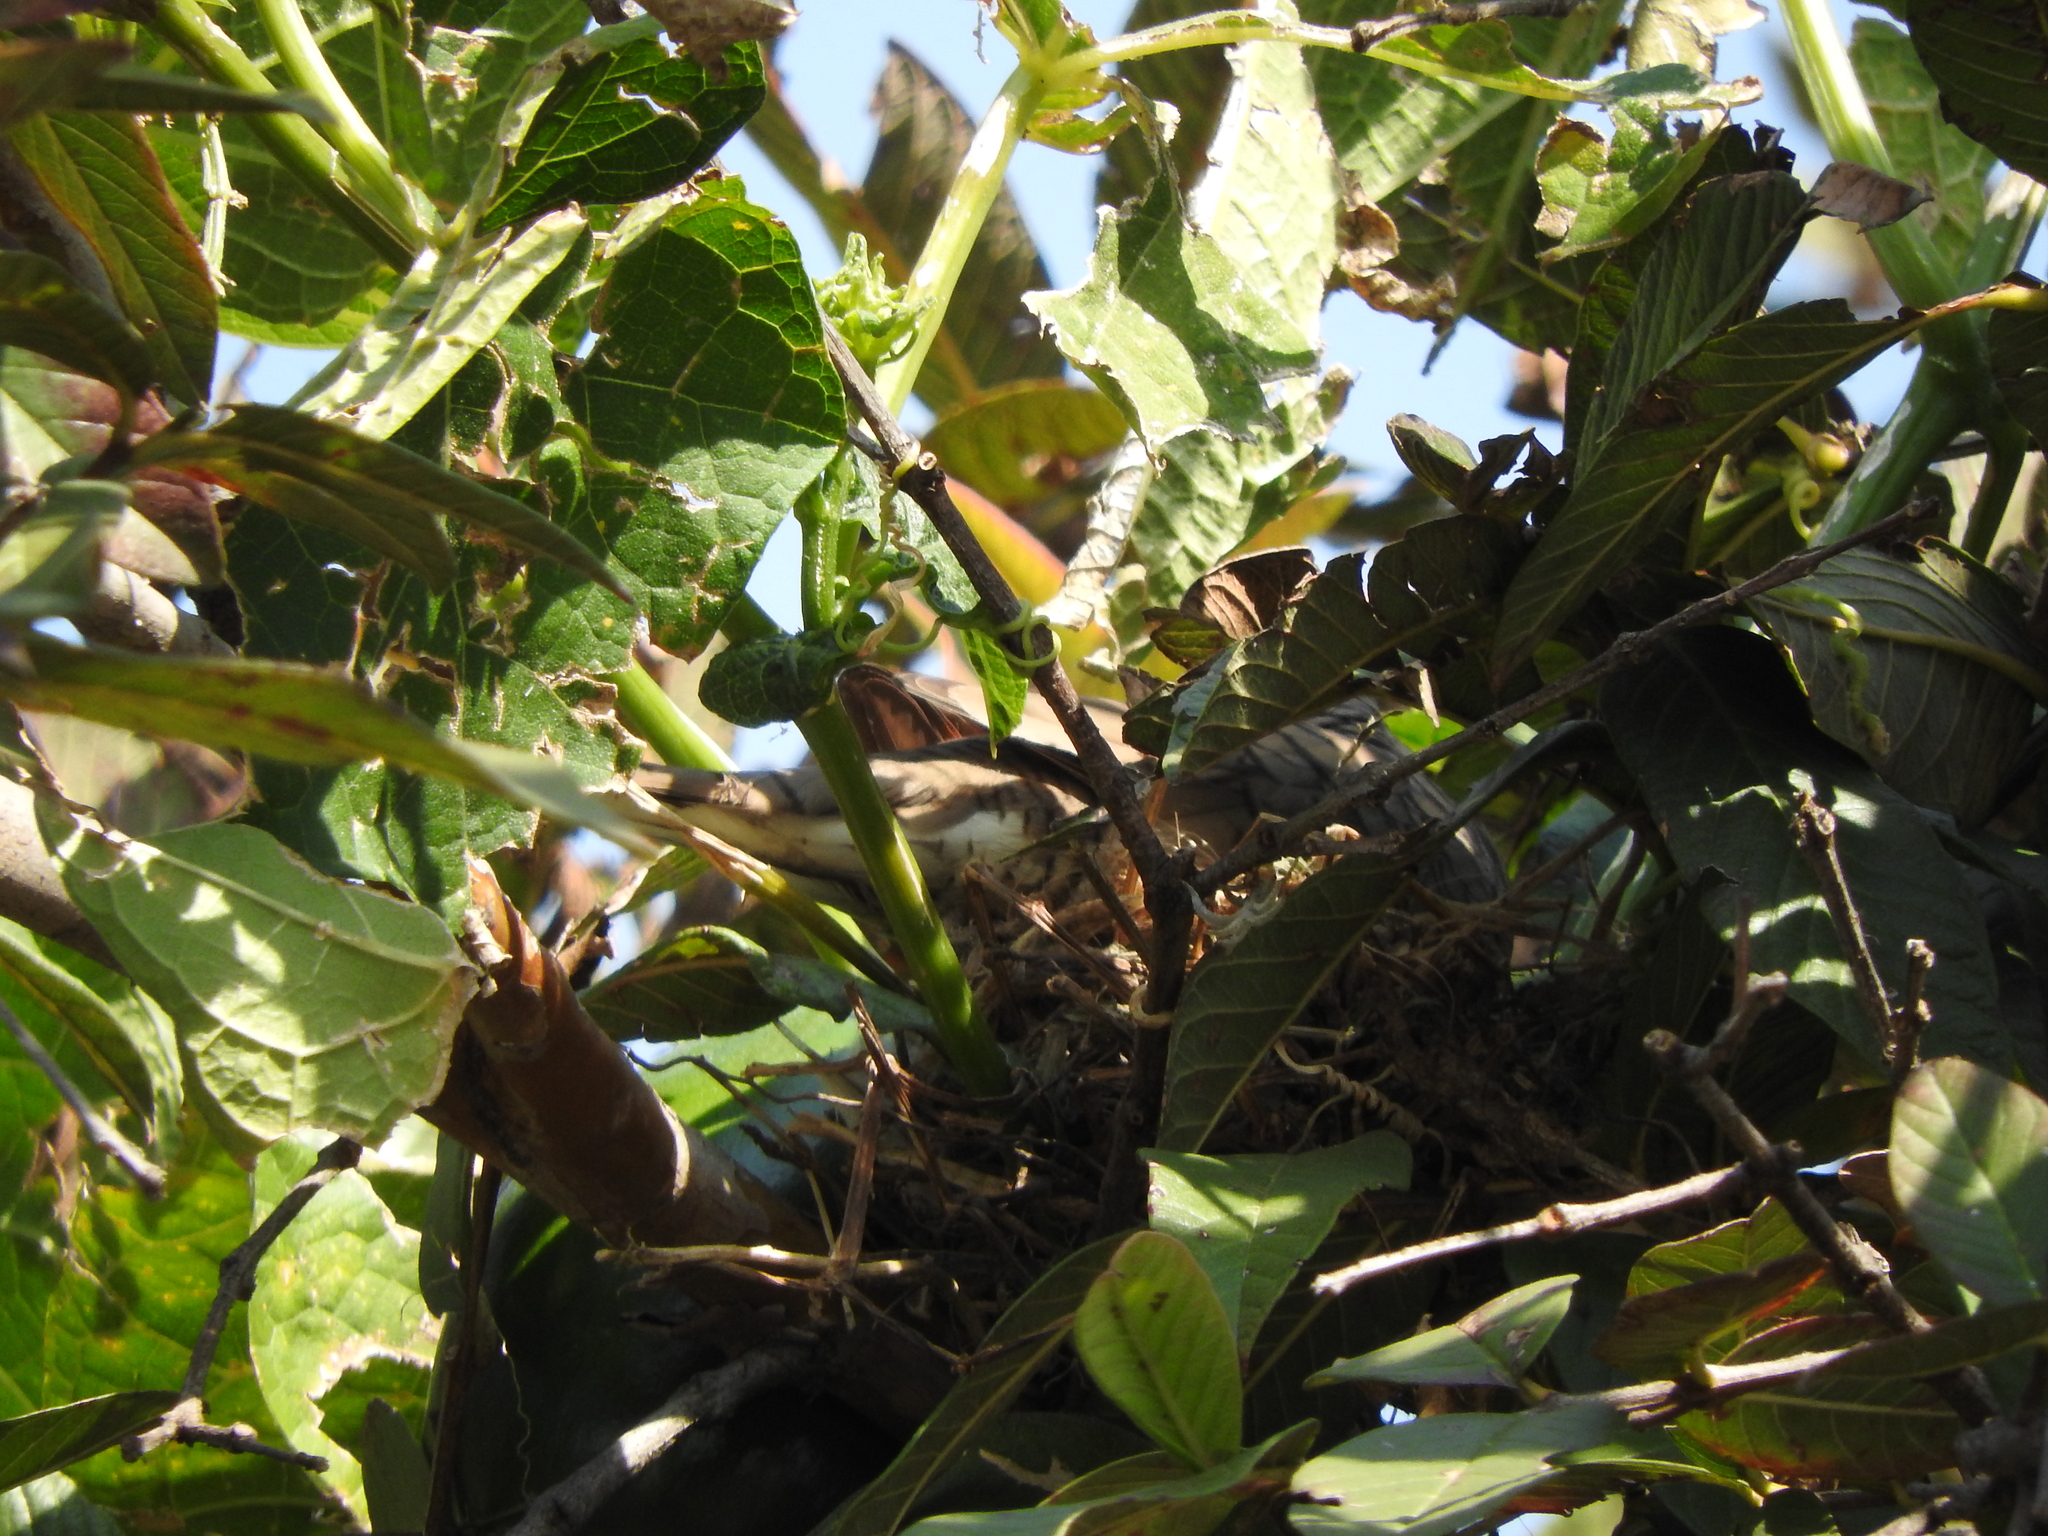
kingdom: Animalia
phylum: Chordata
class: Aves
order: Columbiformes
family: Columbidae
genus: Columbina
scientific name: Columbina inca
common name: Inca dove
